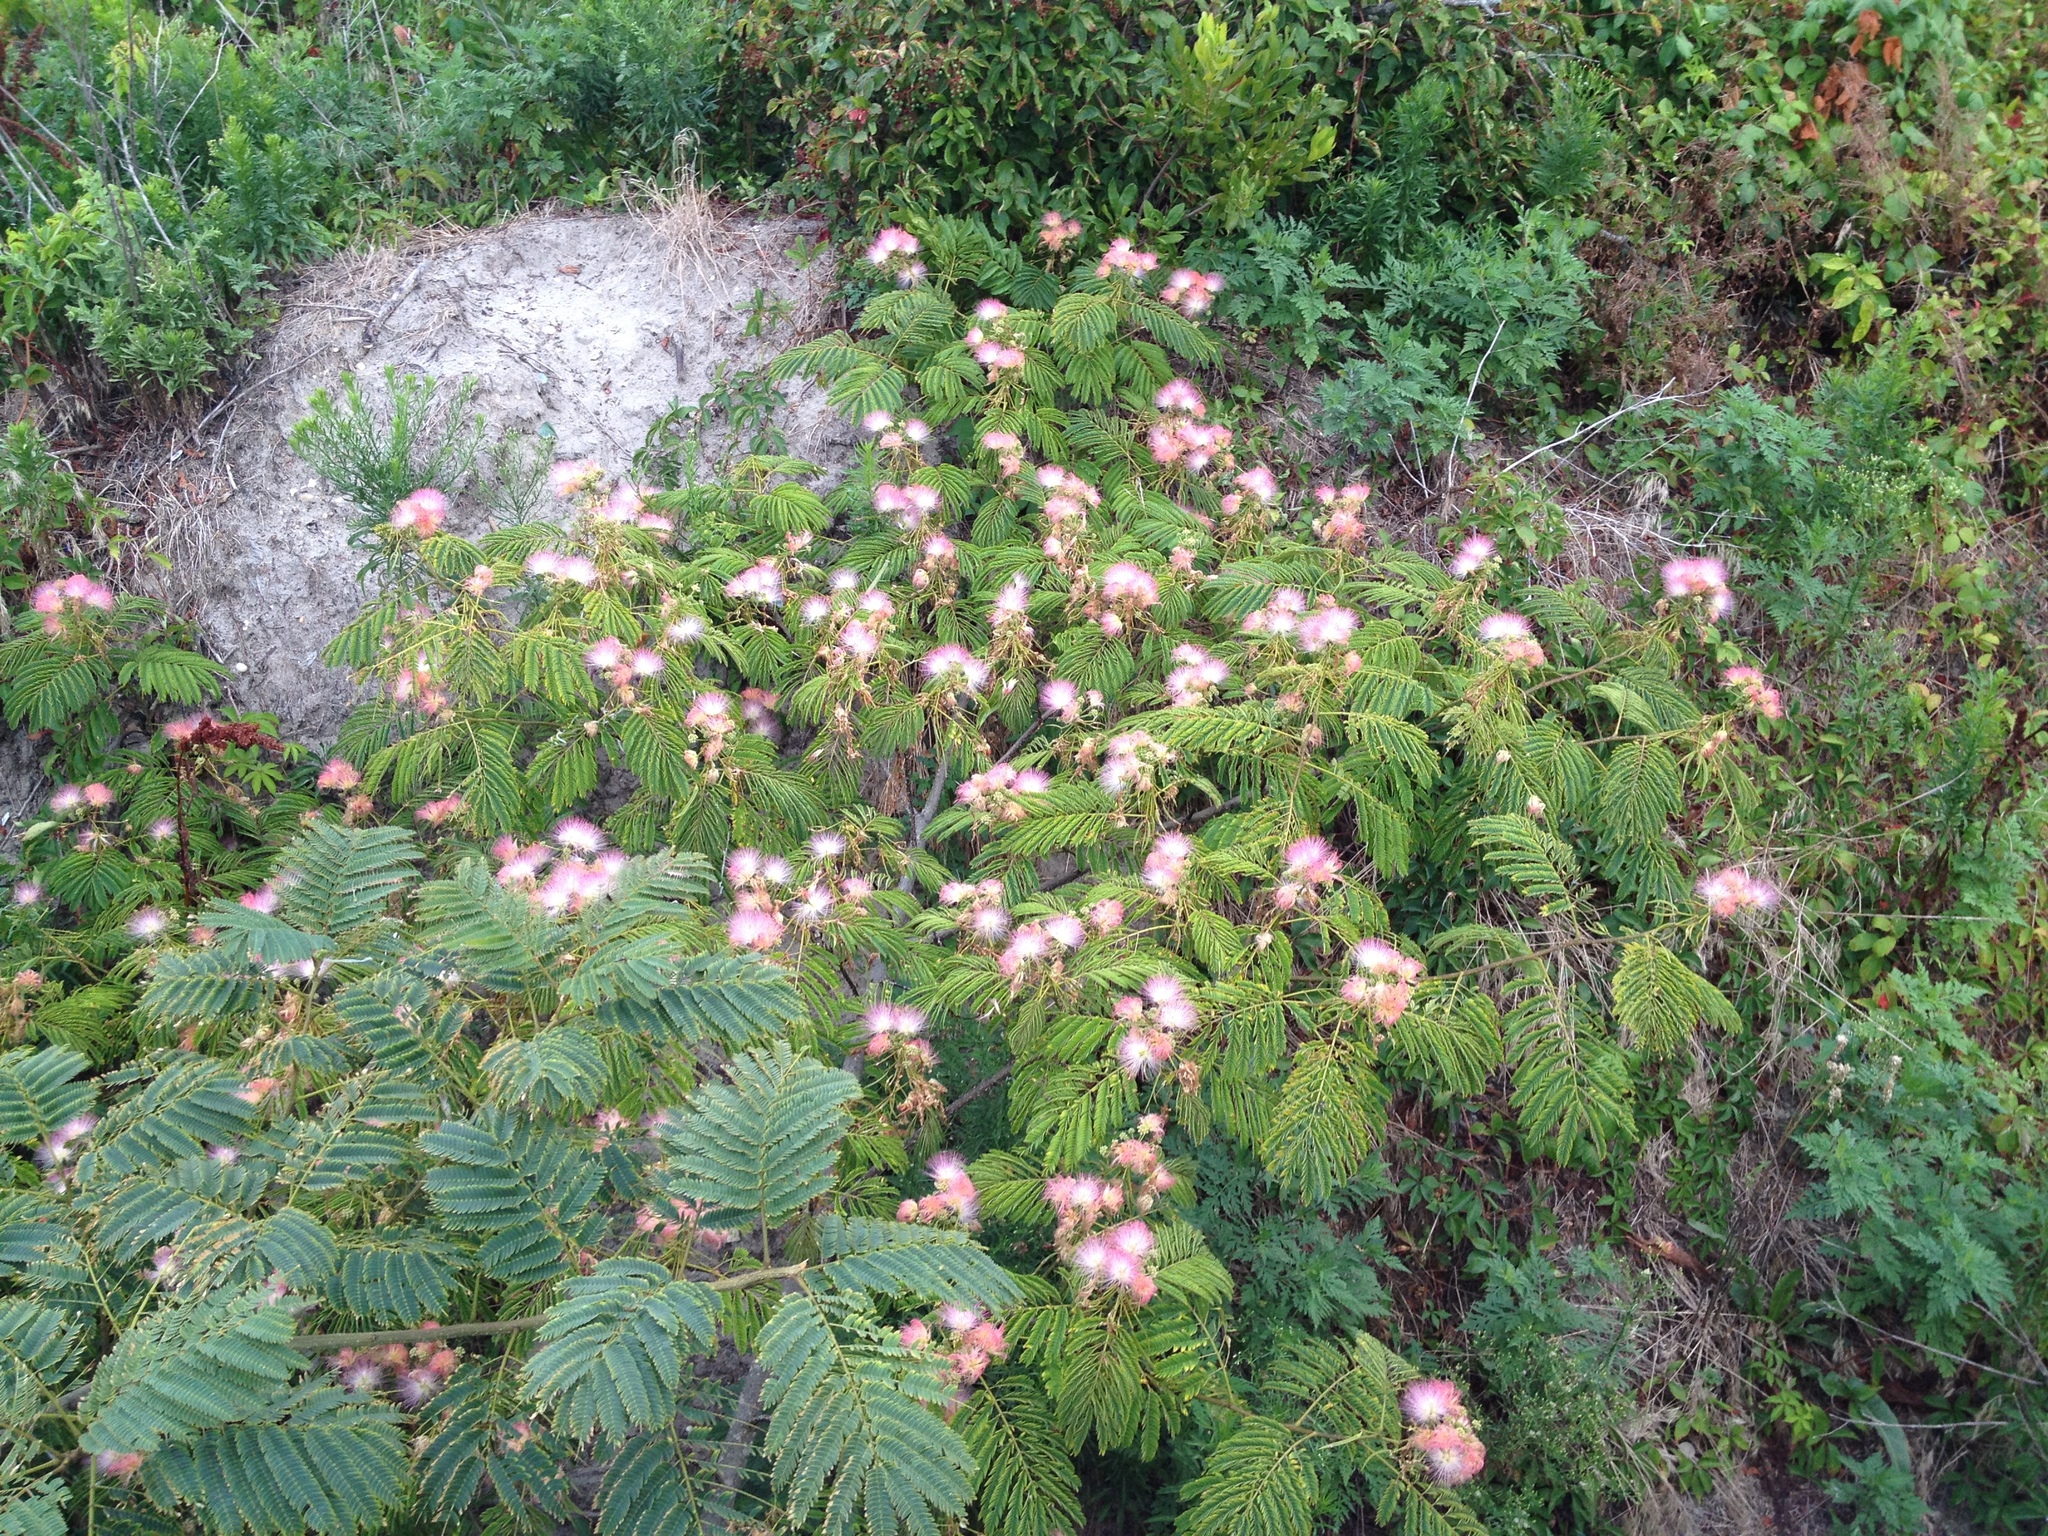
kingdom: Plantae
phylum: Tracheophyta
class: Magnoliopsida
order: Fabales
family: Fabaceae
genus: Albizia
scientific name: Albizia julibrissin
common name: Silktree
